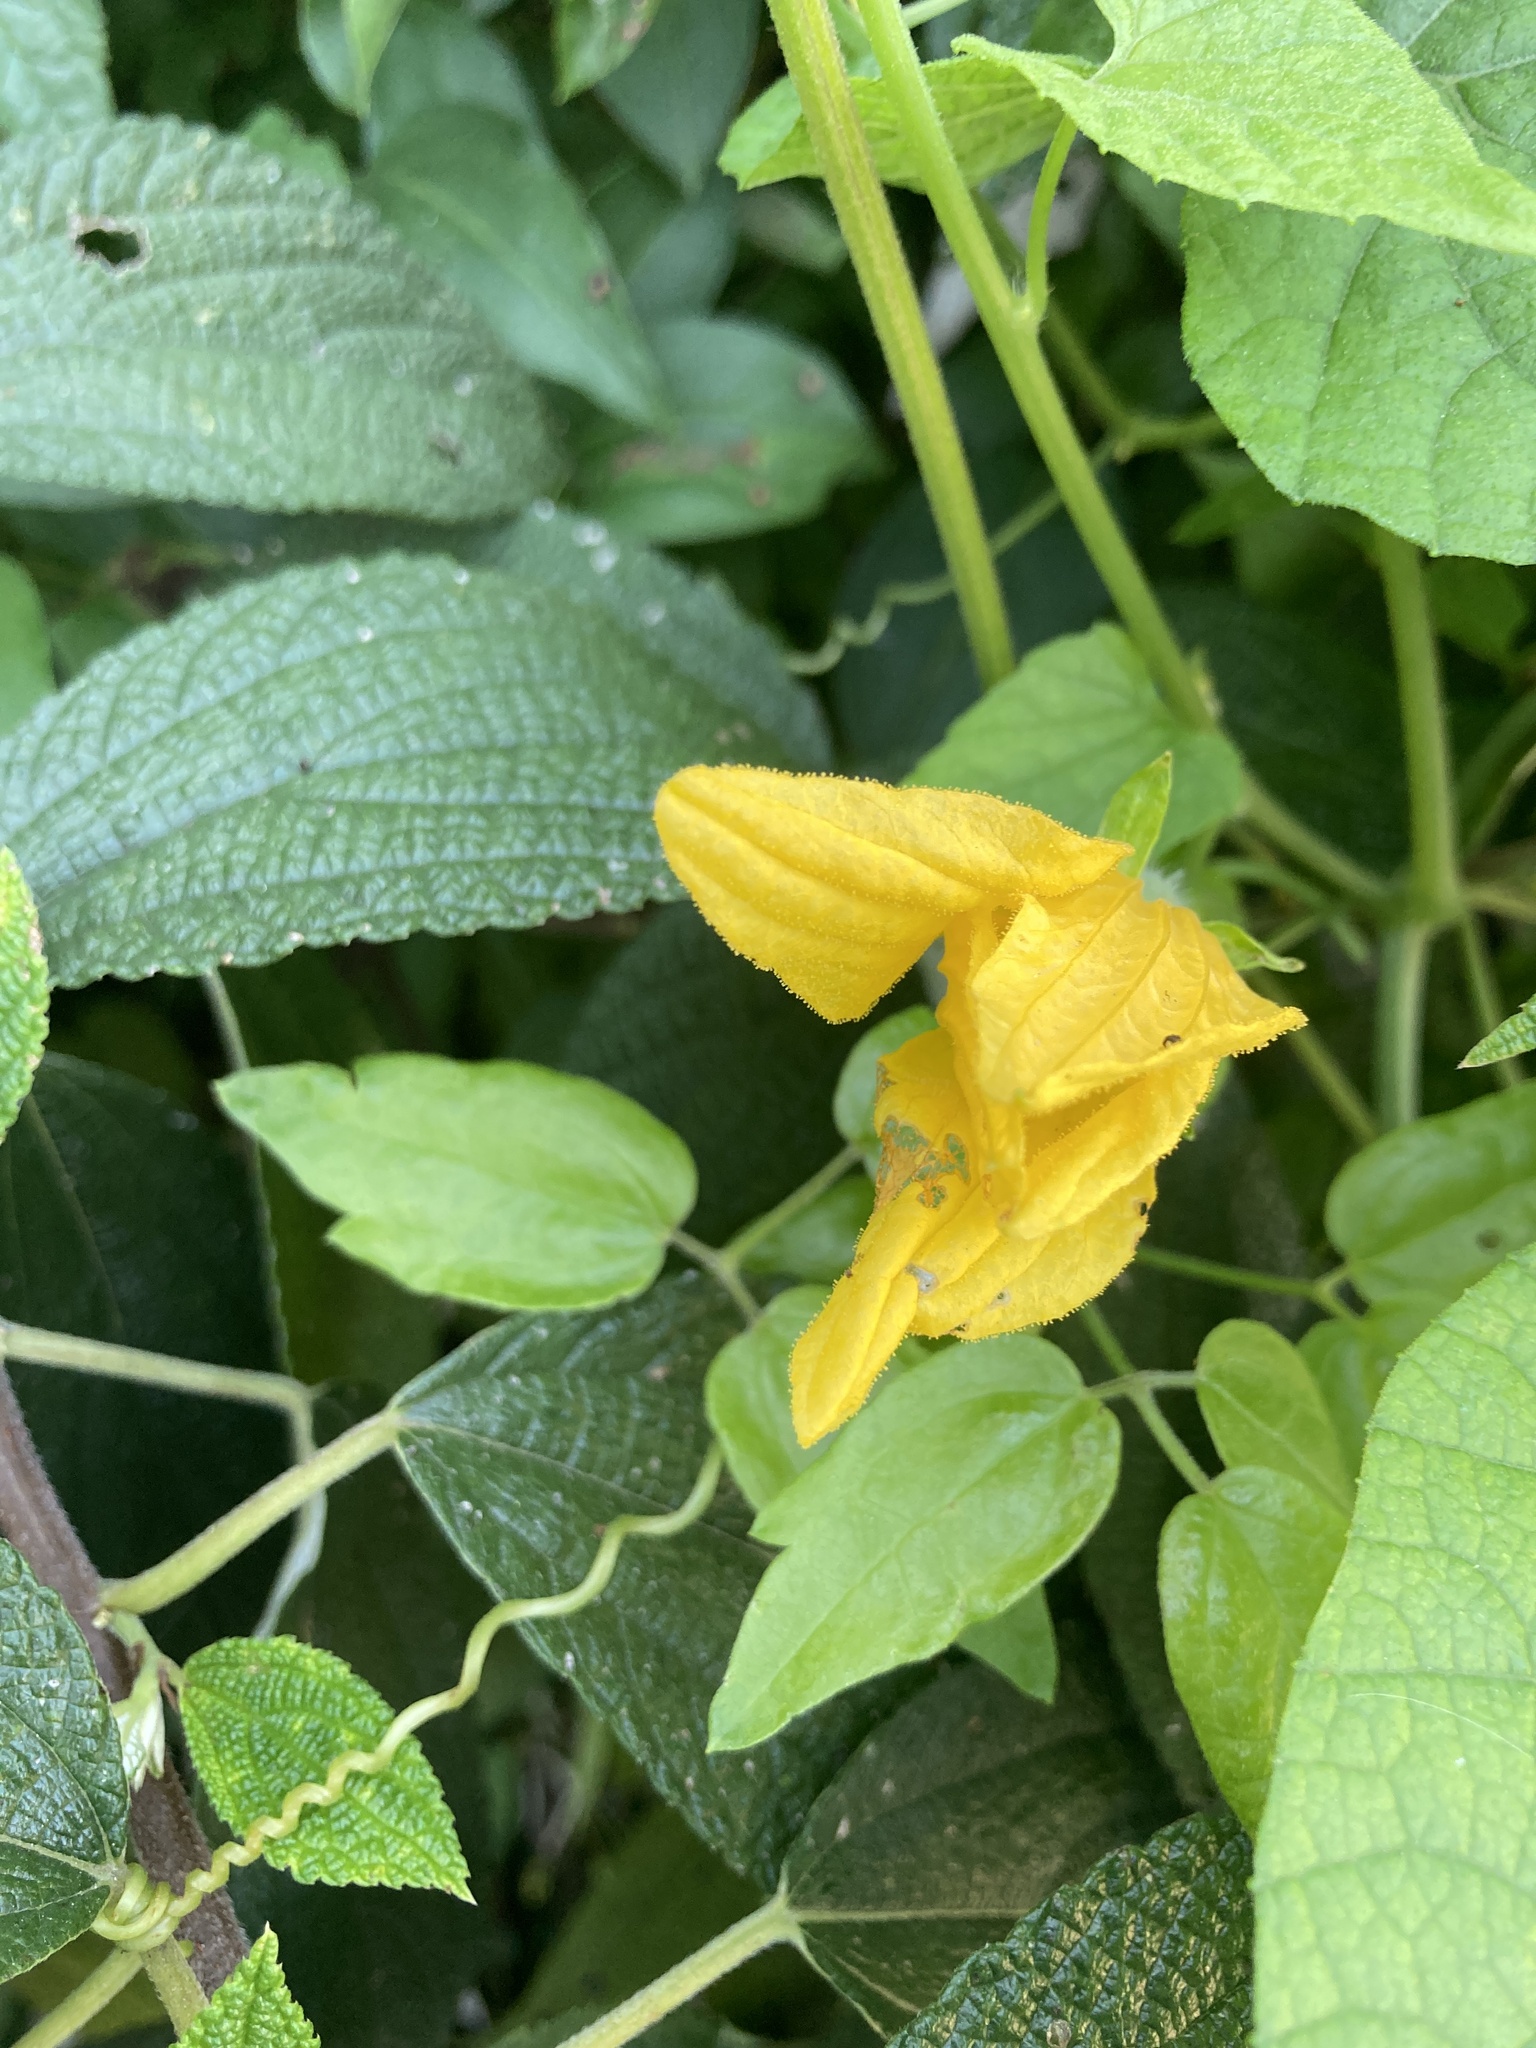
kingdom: Plantae
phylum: Tracheophyta
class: Magnoliopsida
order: Cucurbitales
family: Cucurbitaceae
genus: Thladiantha
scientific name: Thladiantha punctata
